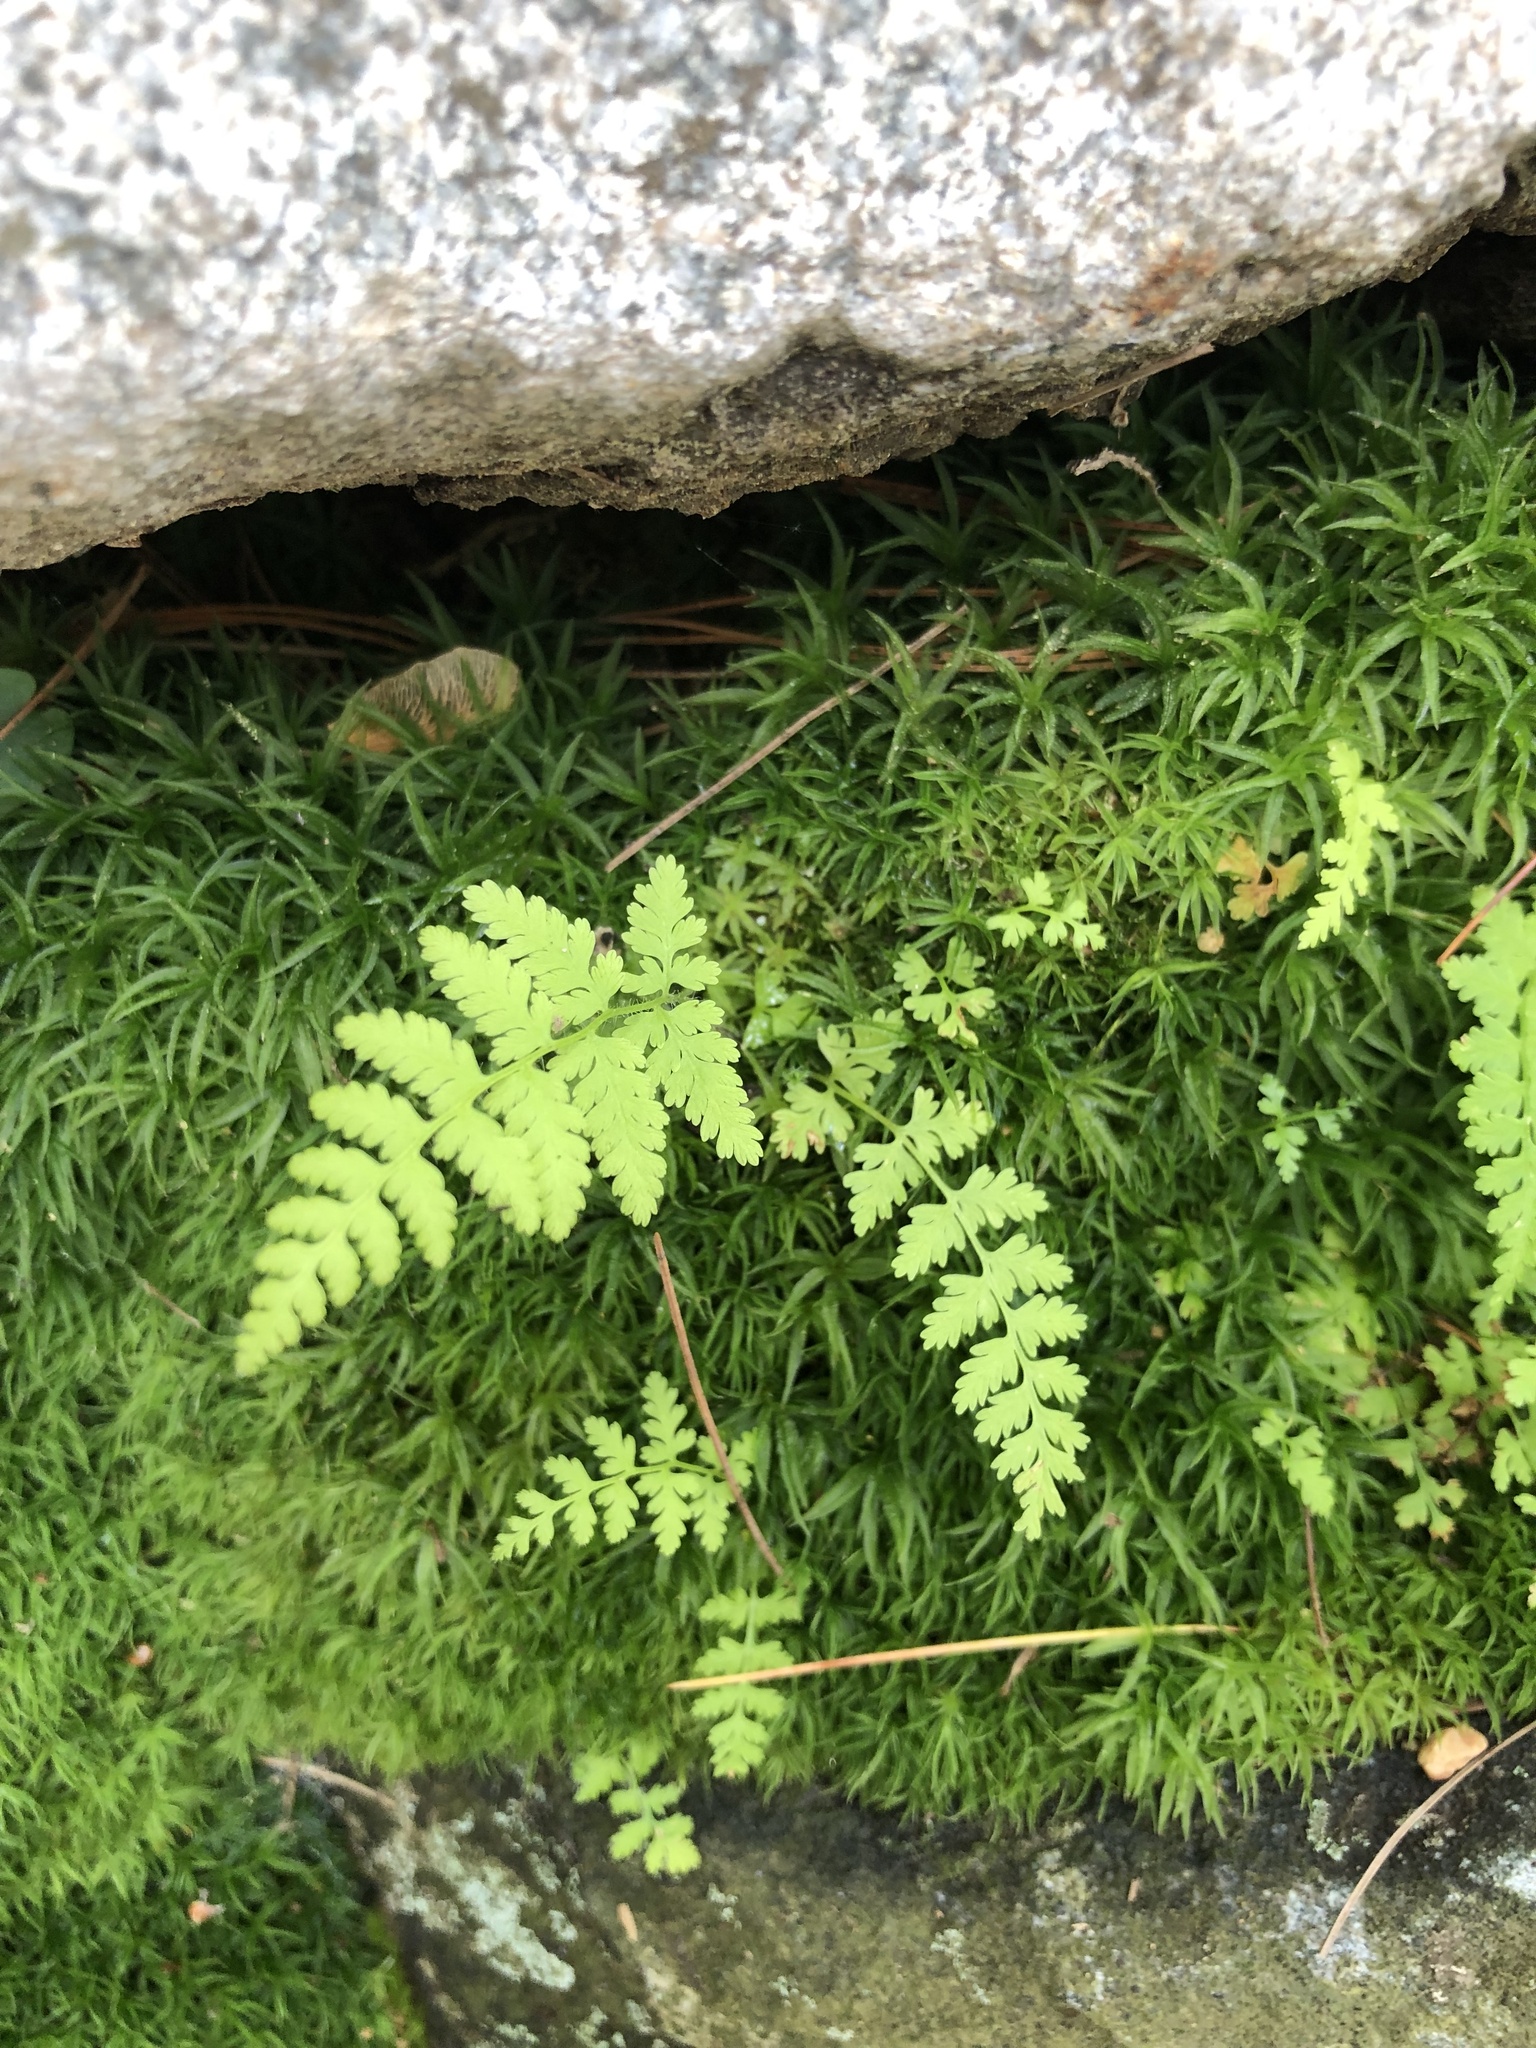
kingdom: Plantae
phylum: Tracheophyta
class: Polypodiopsida
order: Polypodiales
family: Dennstaedtiaceae
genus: Sitobolium
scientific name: Sitobolium punctilobum
